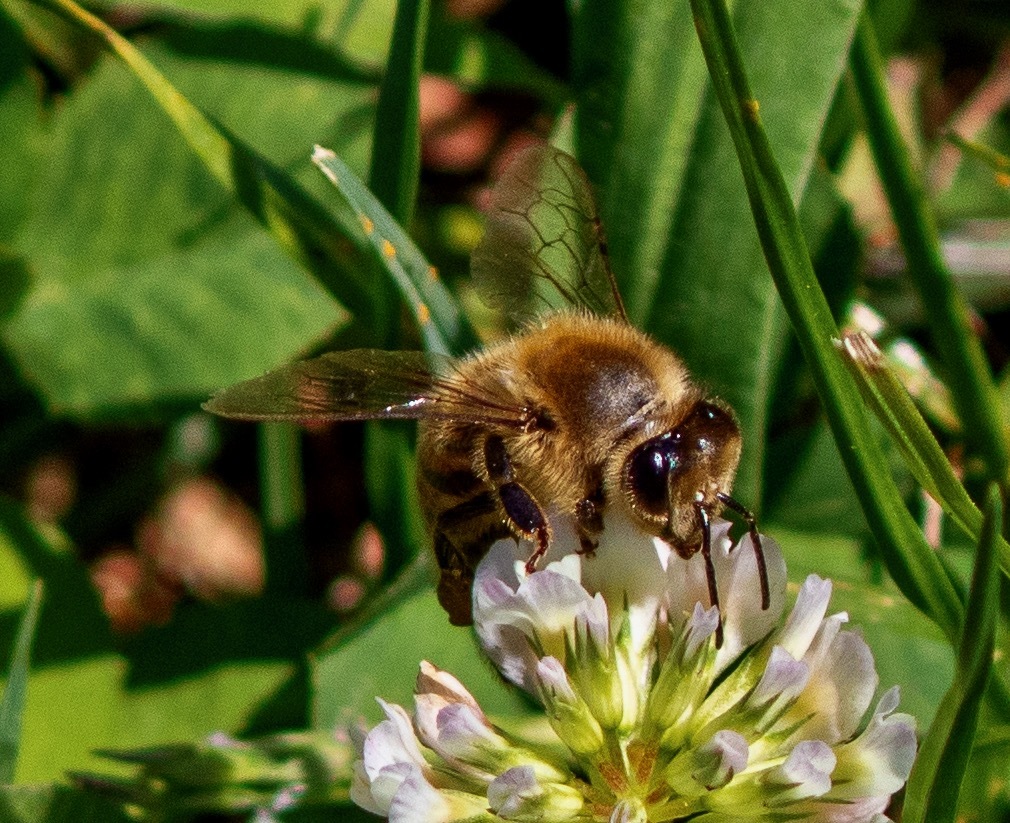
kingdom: Animalia
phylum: Arthropoda
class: Insecta
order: Hymenoptera
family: Apidae
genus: Apis
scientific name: Apis mellifera
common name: Honey bee
